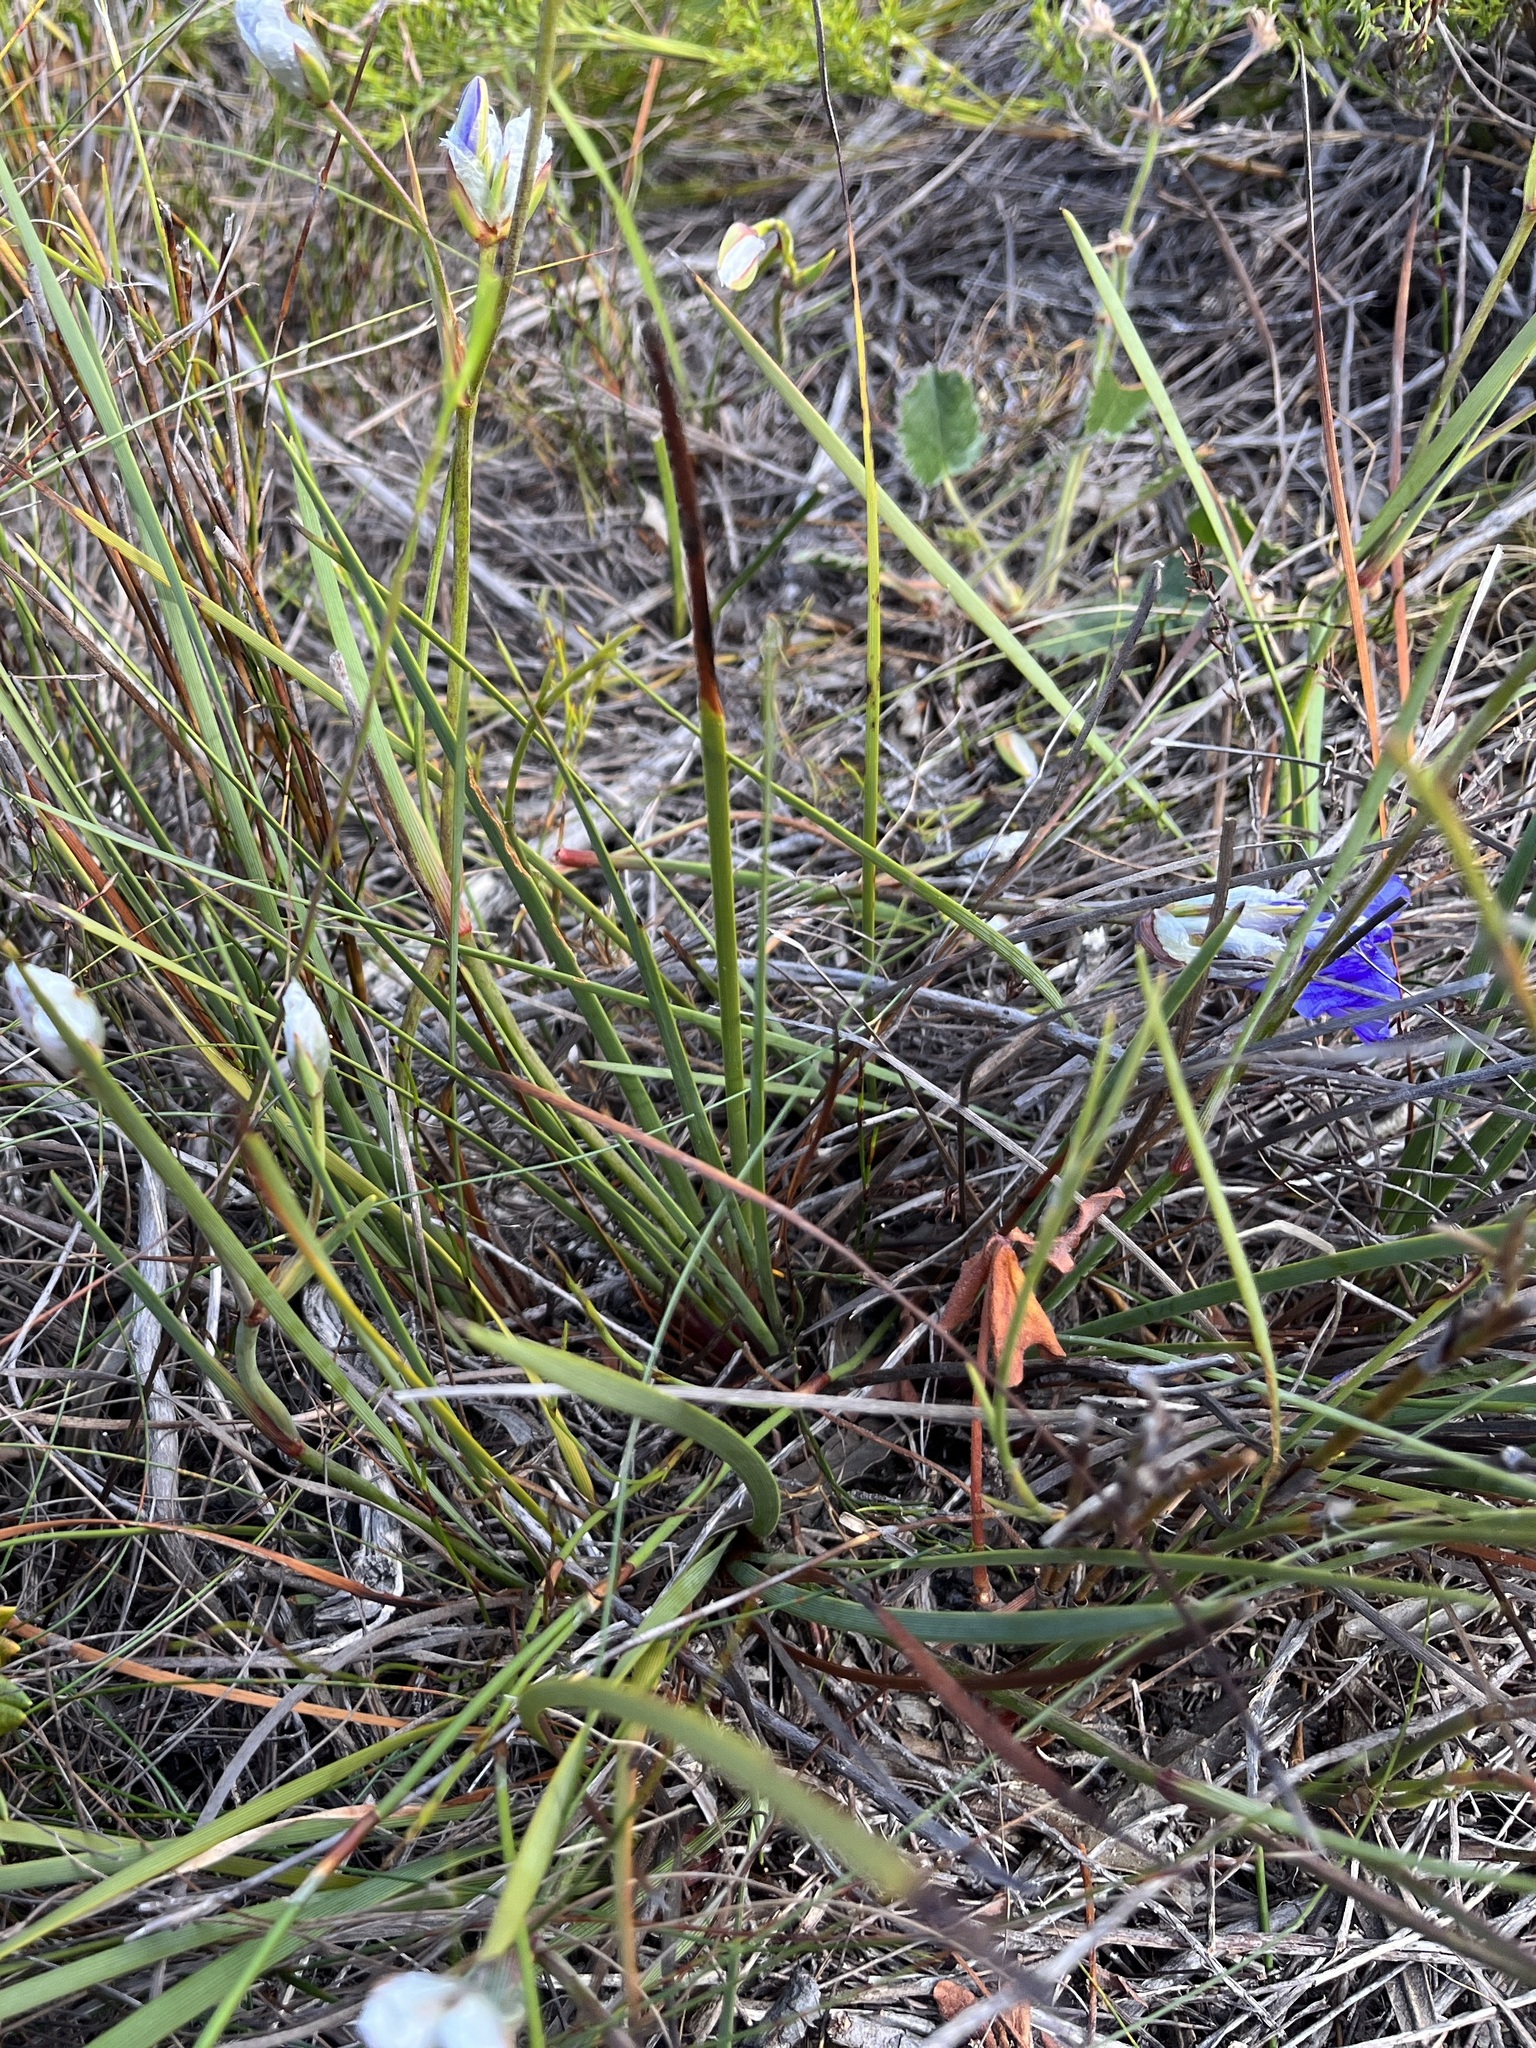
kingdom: Plantae
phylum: Tracheophyta
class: Liliopsida
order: Asparagales
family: Iridaceae
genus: Aristea
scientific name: Aristea oligocephala
